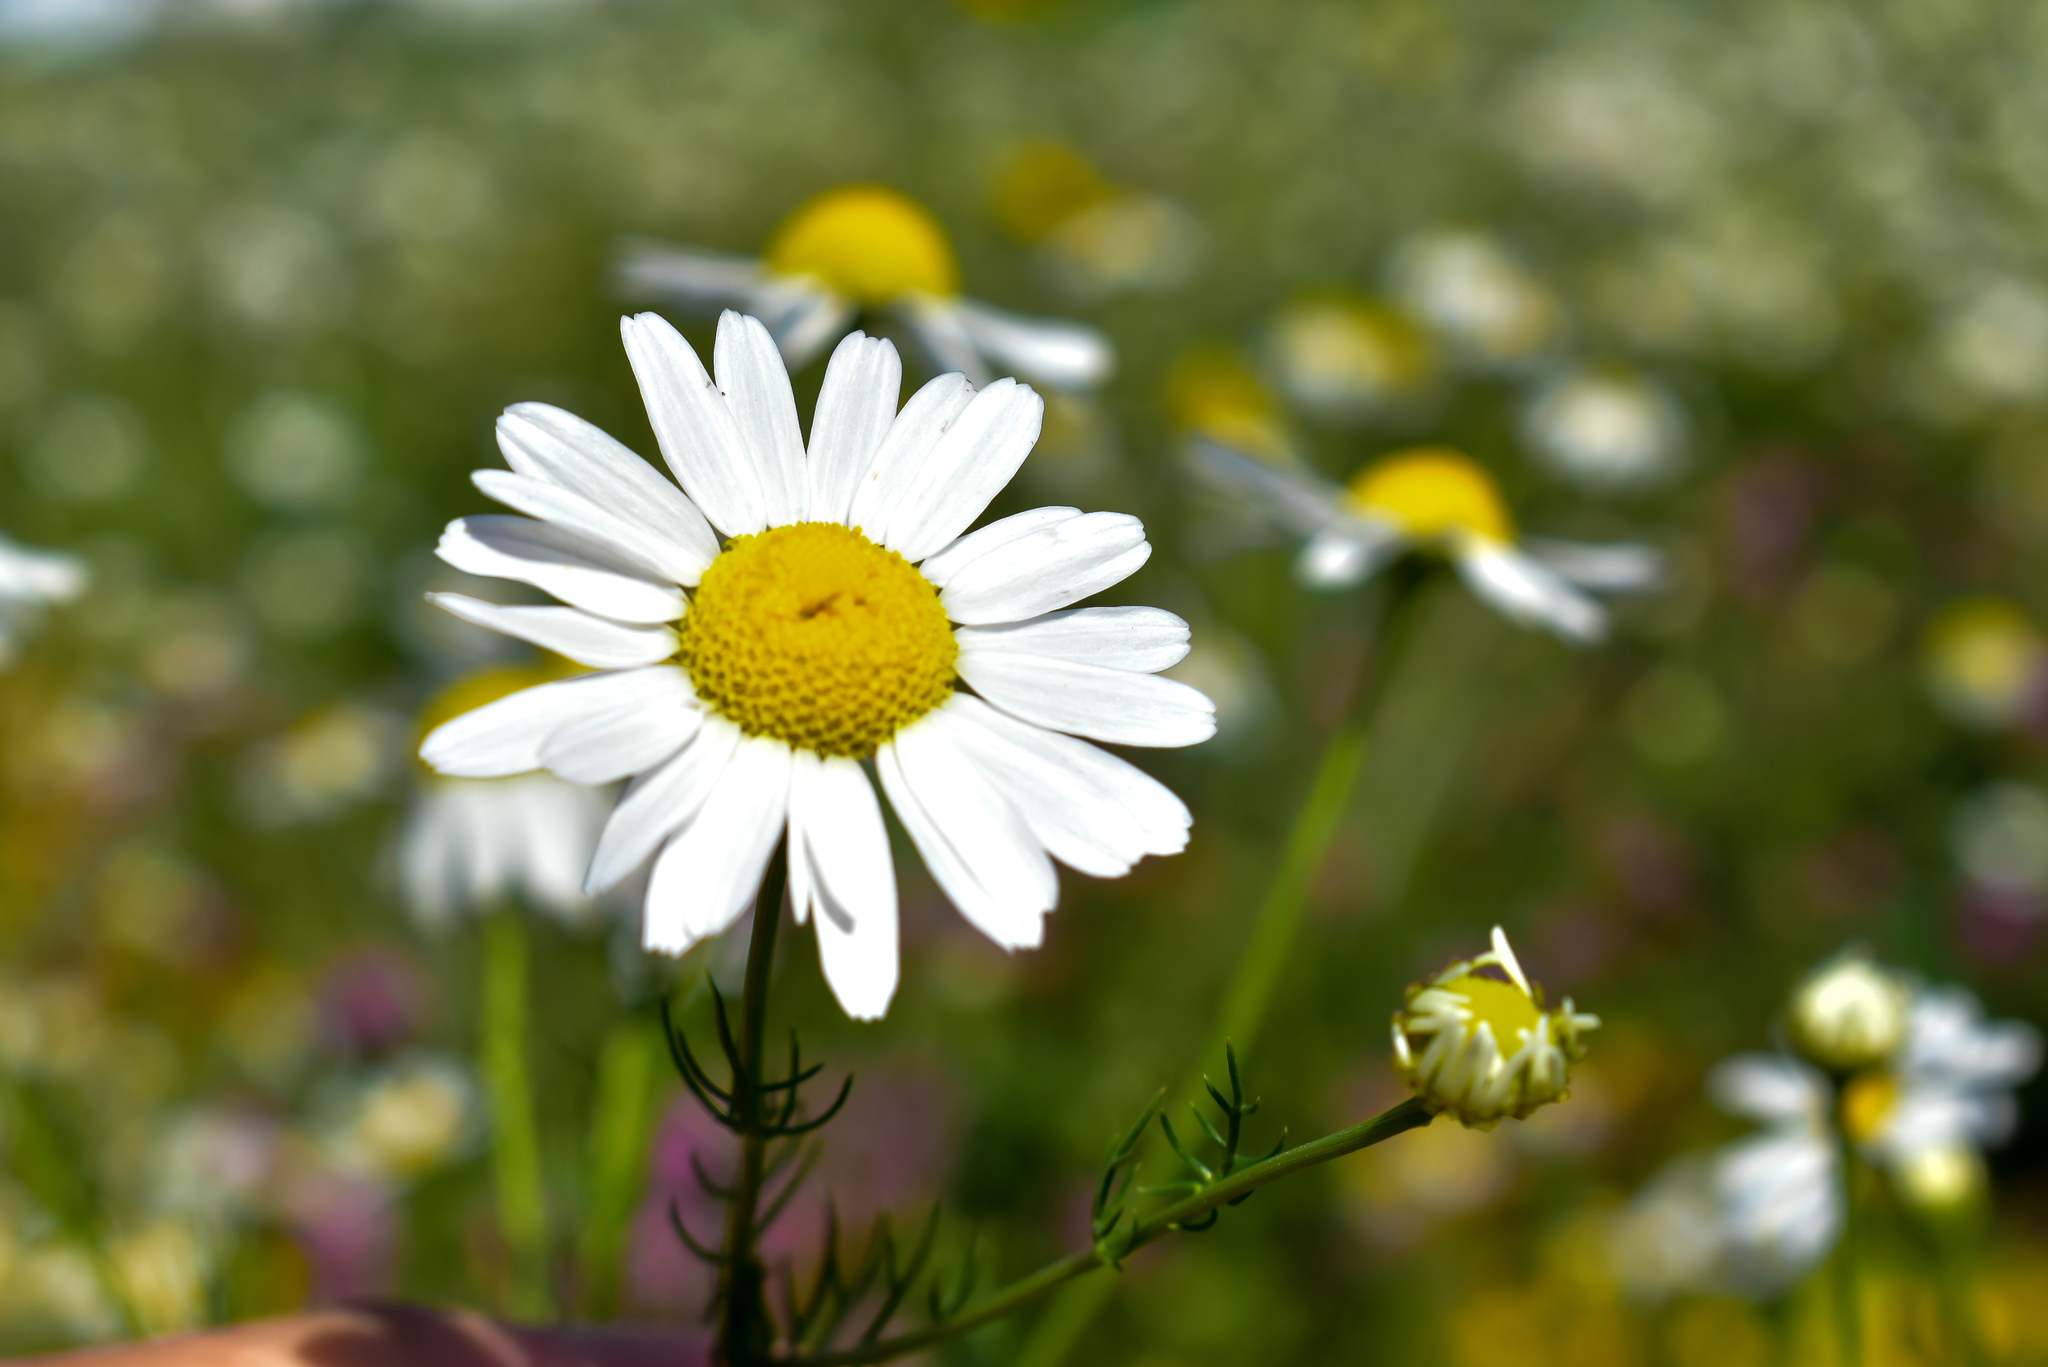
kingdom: Plantae
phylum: Tracheophyta
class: Magnoliopsida
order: Asterales
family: Asteraceae
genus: Tripleurospermum
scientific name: Tripleurospermum inodorum
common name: Scentless mayweed
